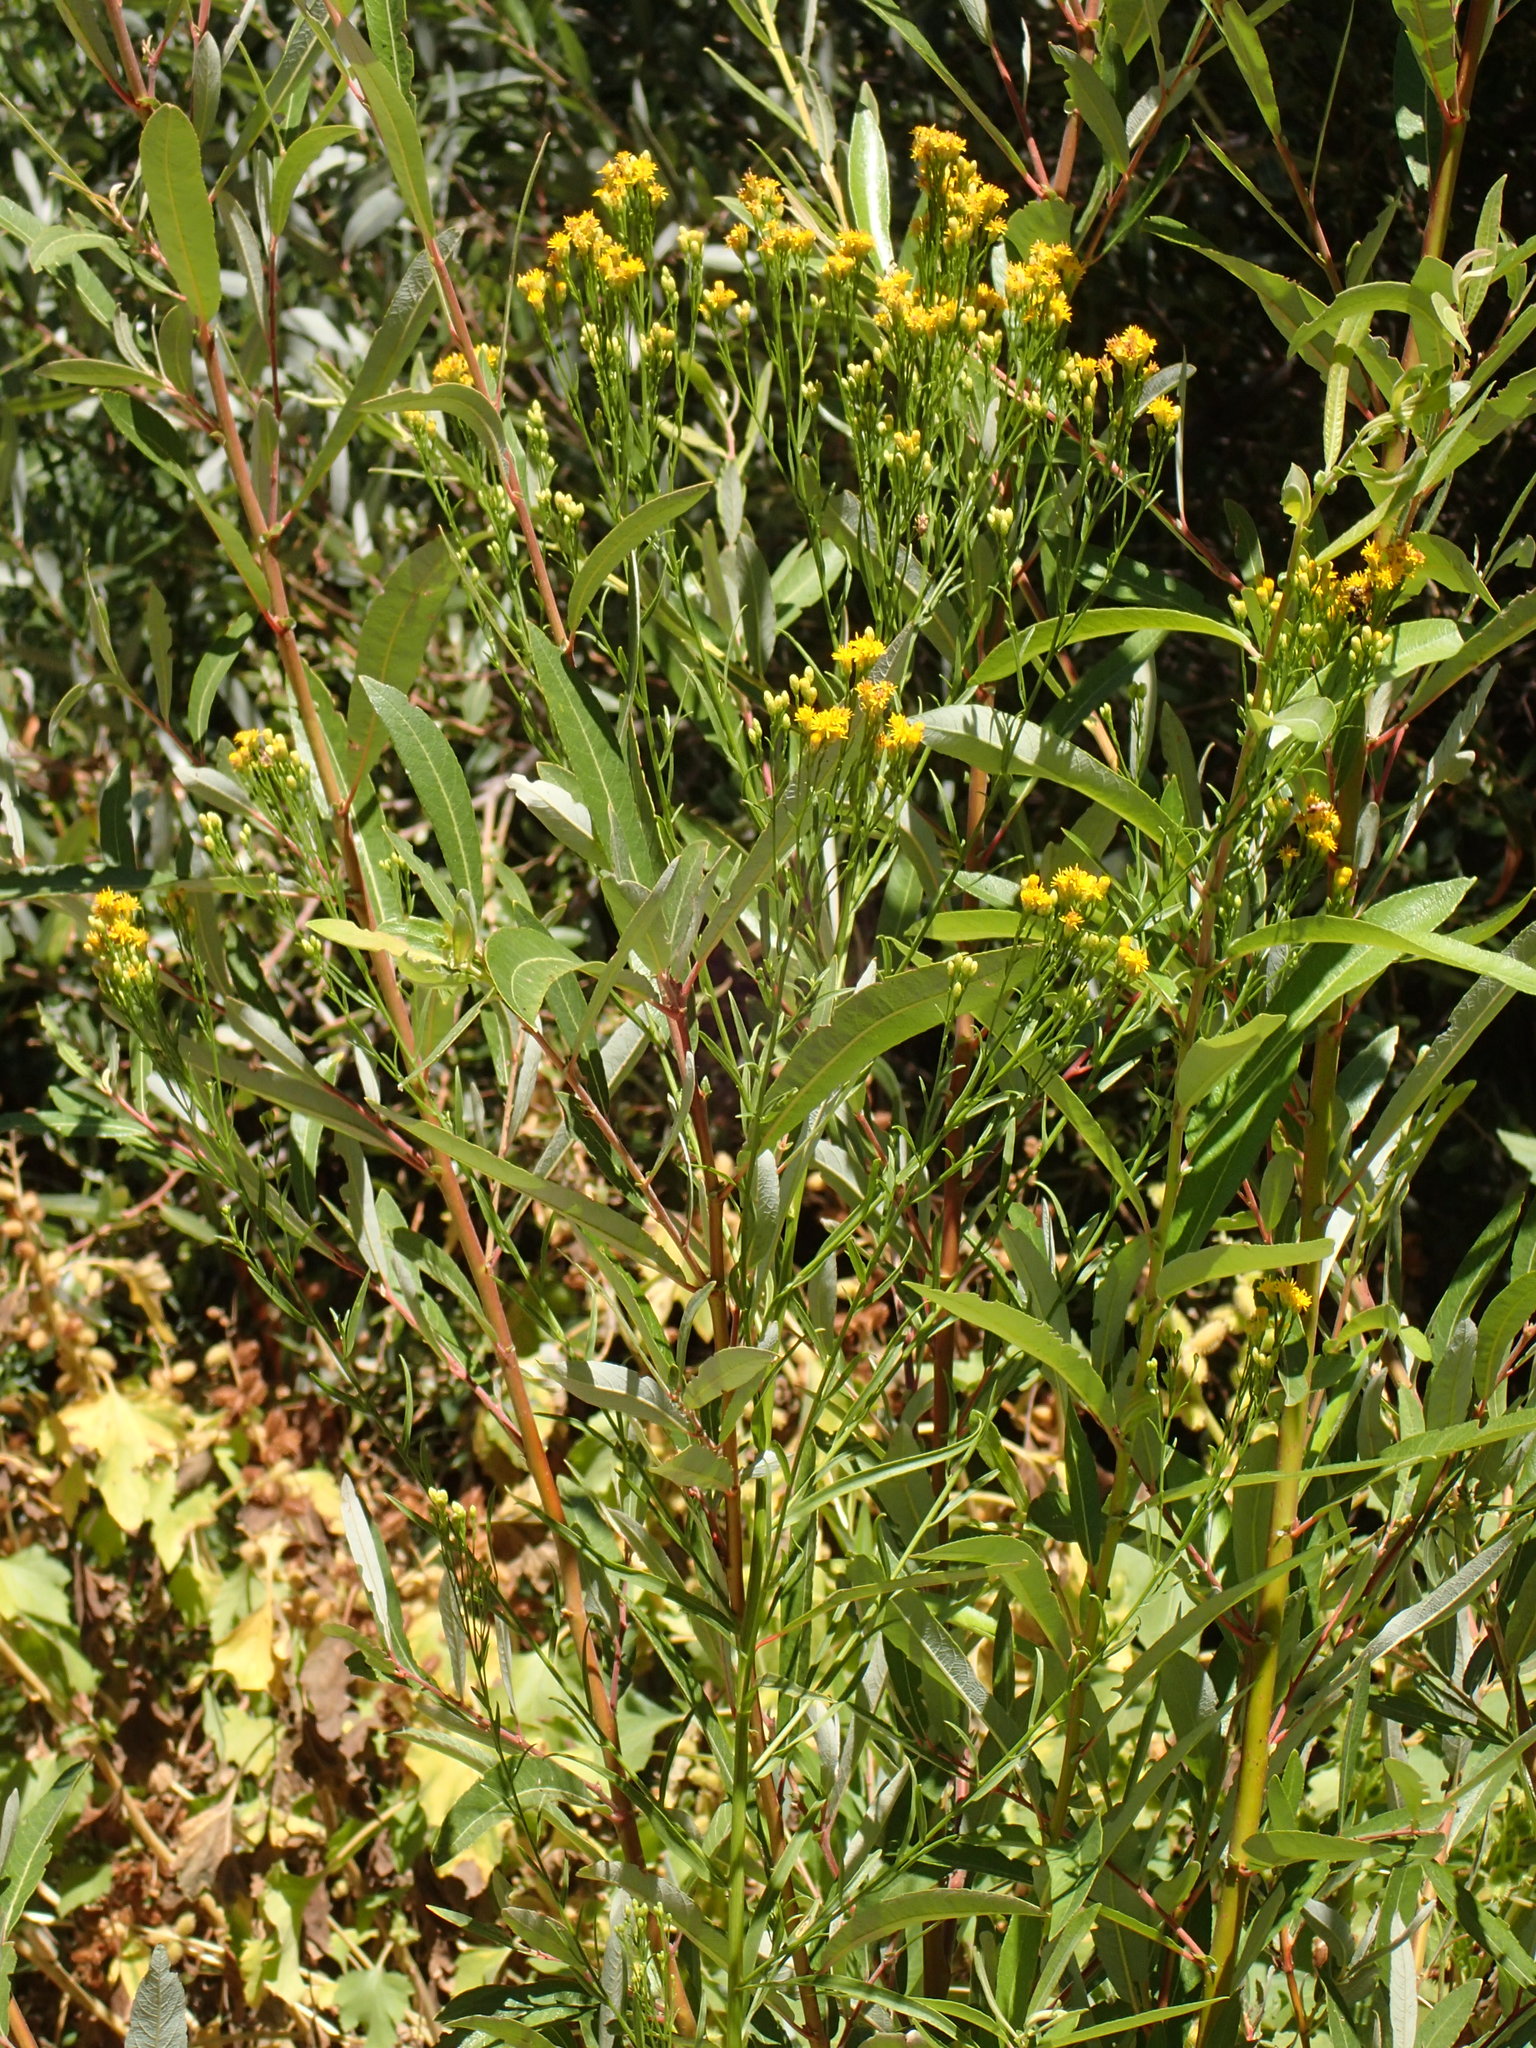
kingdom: Plantae
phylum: Tracheophyta
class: Magnoliopsida
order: Asterales
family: Asteraceae
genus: Euthamia
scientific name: Euthamia occidentalis
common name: Western goldentop
